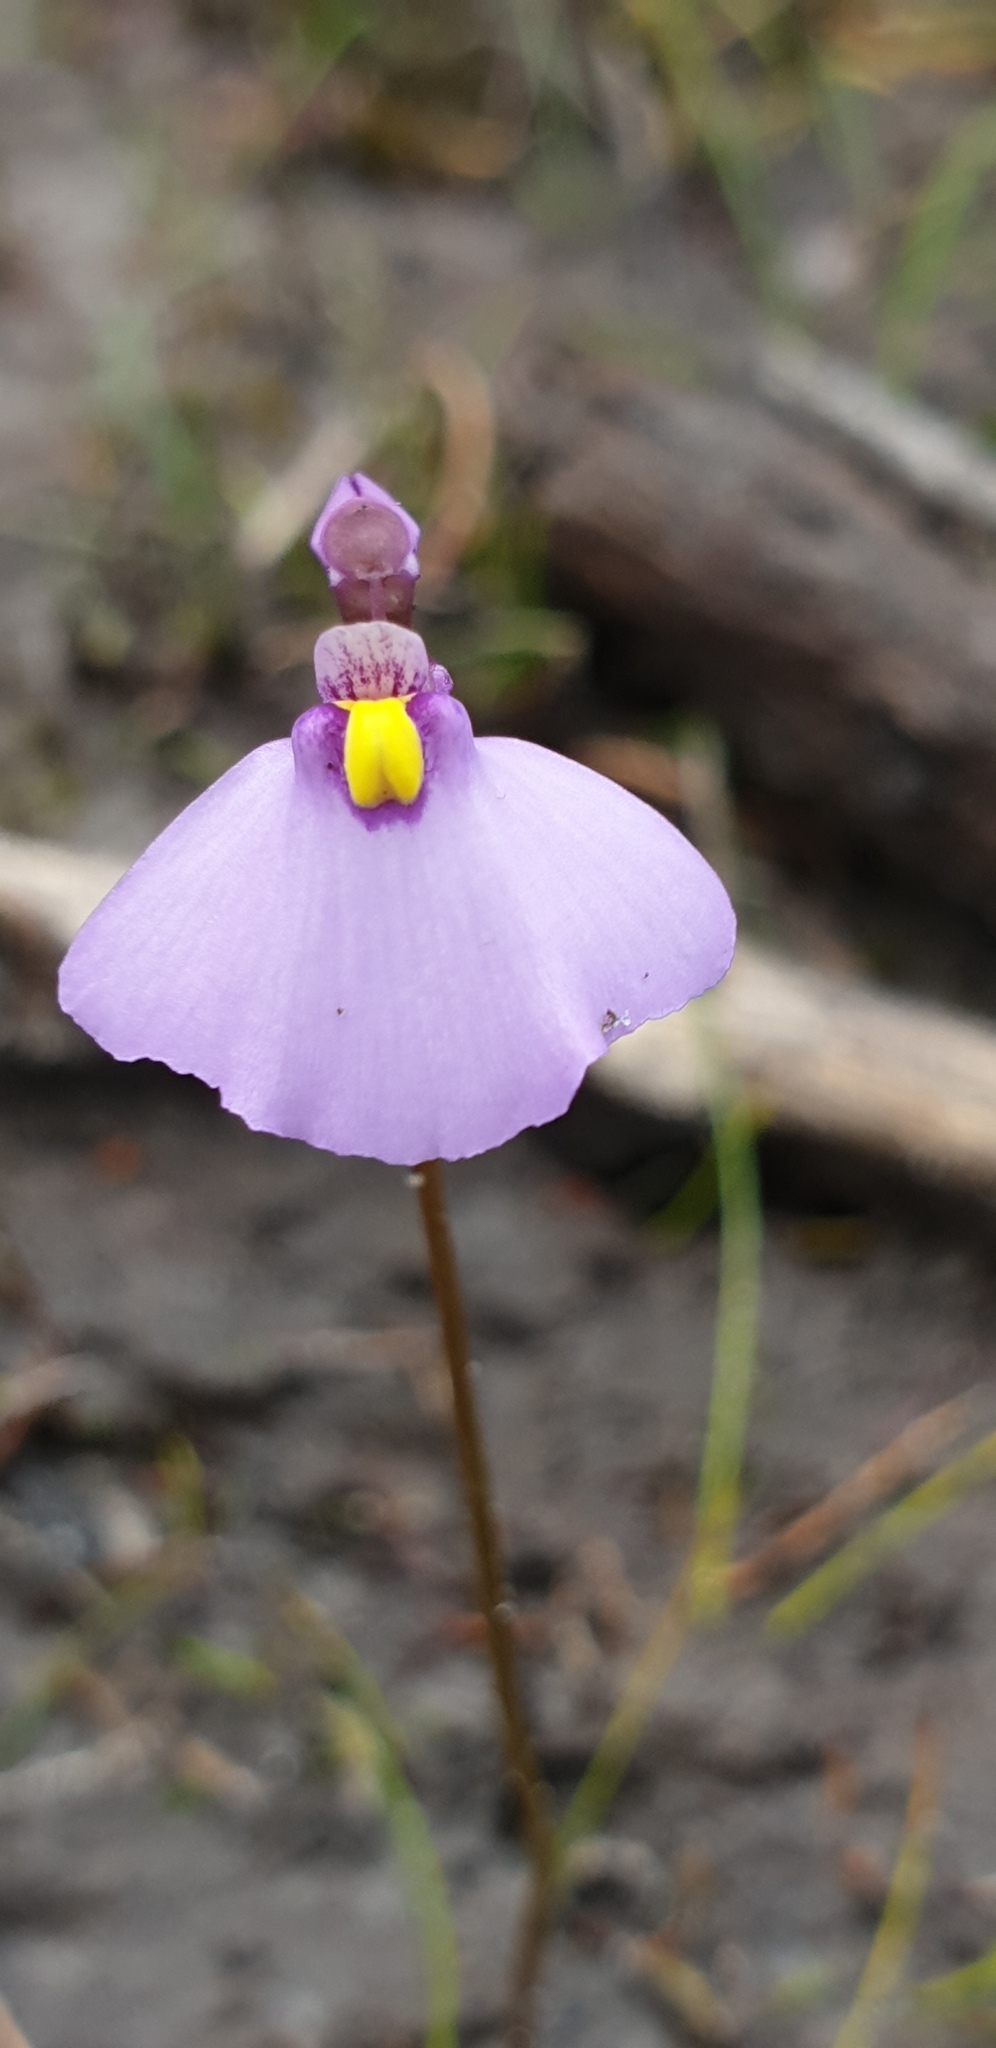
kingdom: Plantae
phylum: Tracheophyta
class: Magnoliopsida
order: Lamiales
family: Lentibulariaceae
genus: Utricularia
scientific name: Utricularia barkeri
